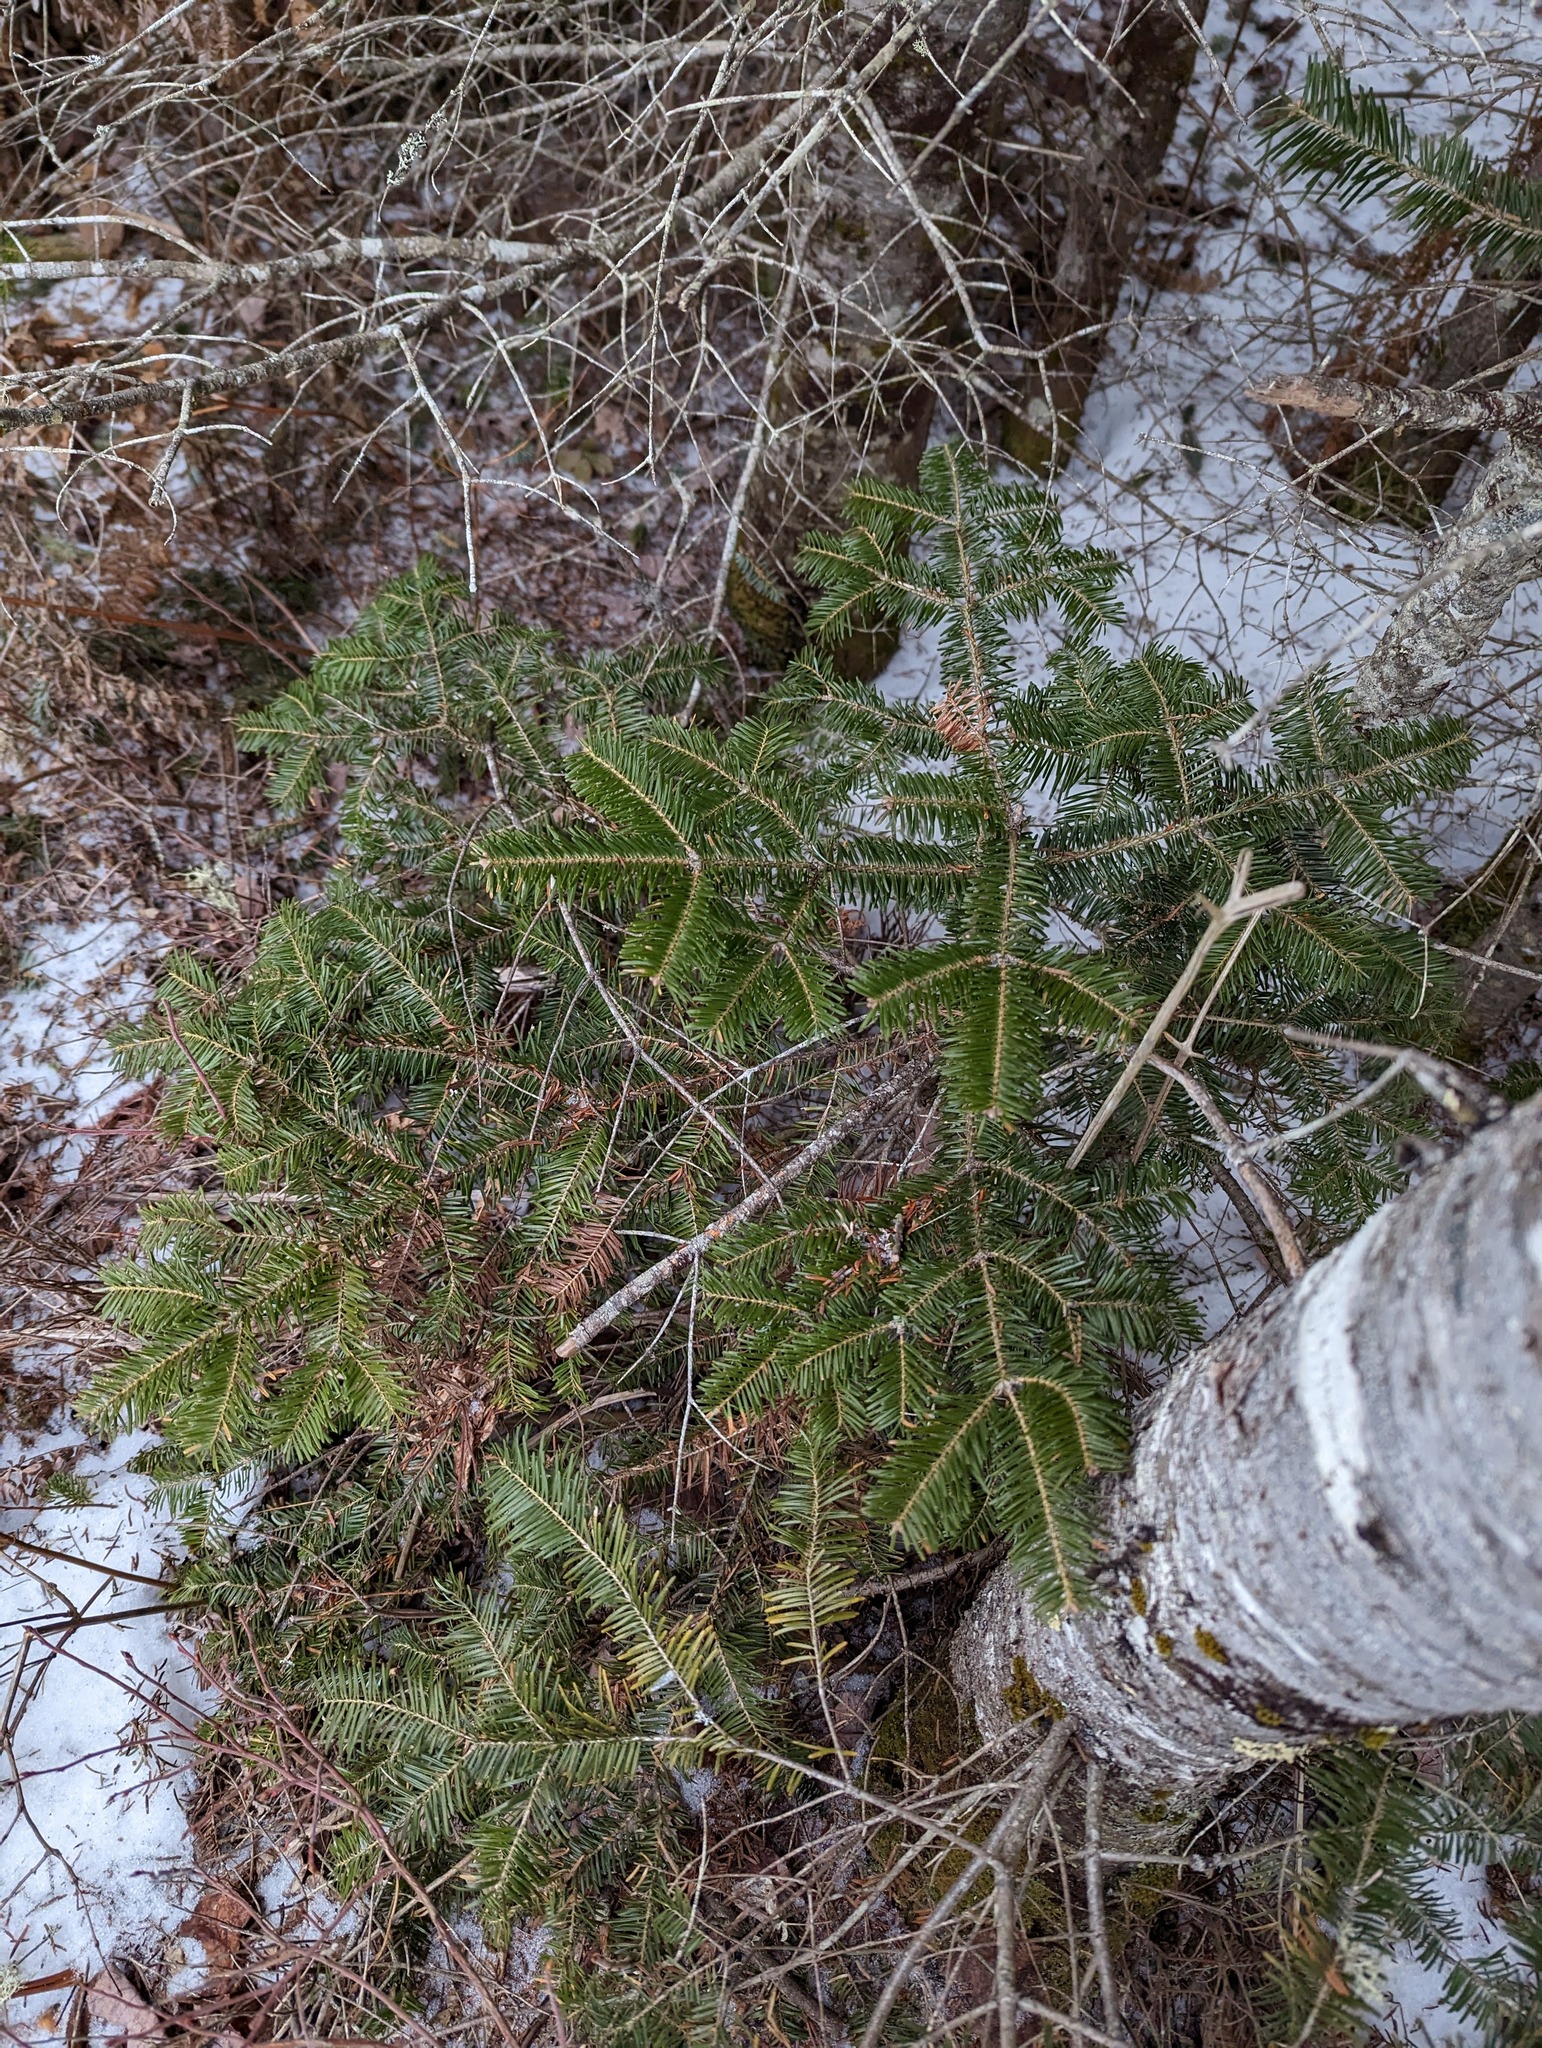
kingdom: Plantae
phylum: Tracheophyta
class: Pinopsida
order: Pinales
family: Pinaceae
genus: Abies
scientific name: Abies balsamea
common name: Balsam fir
